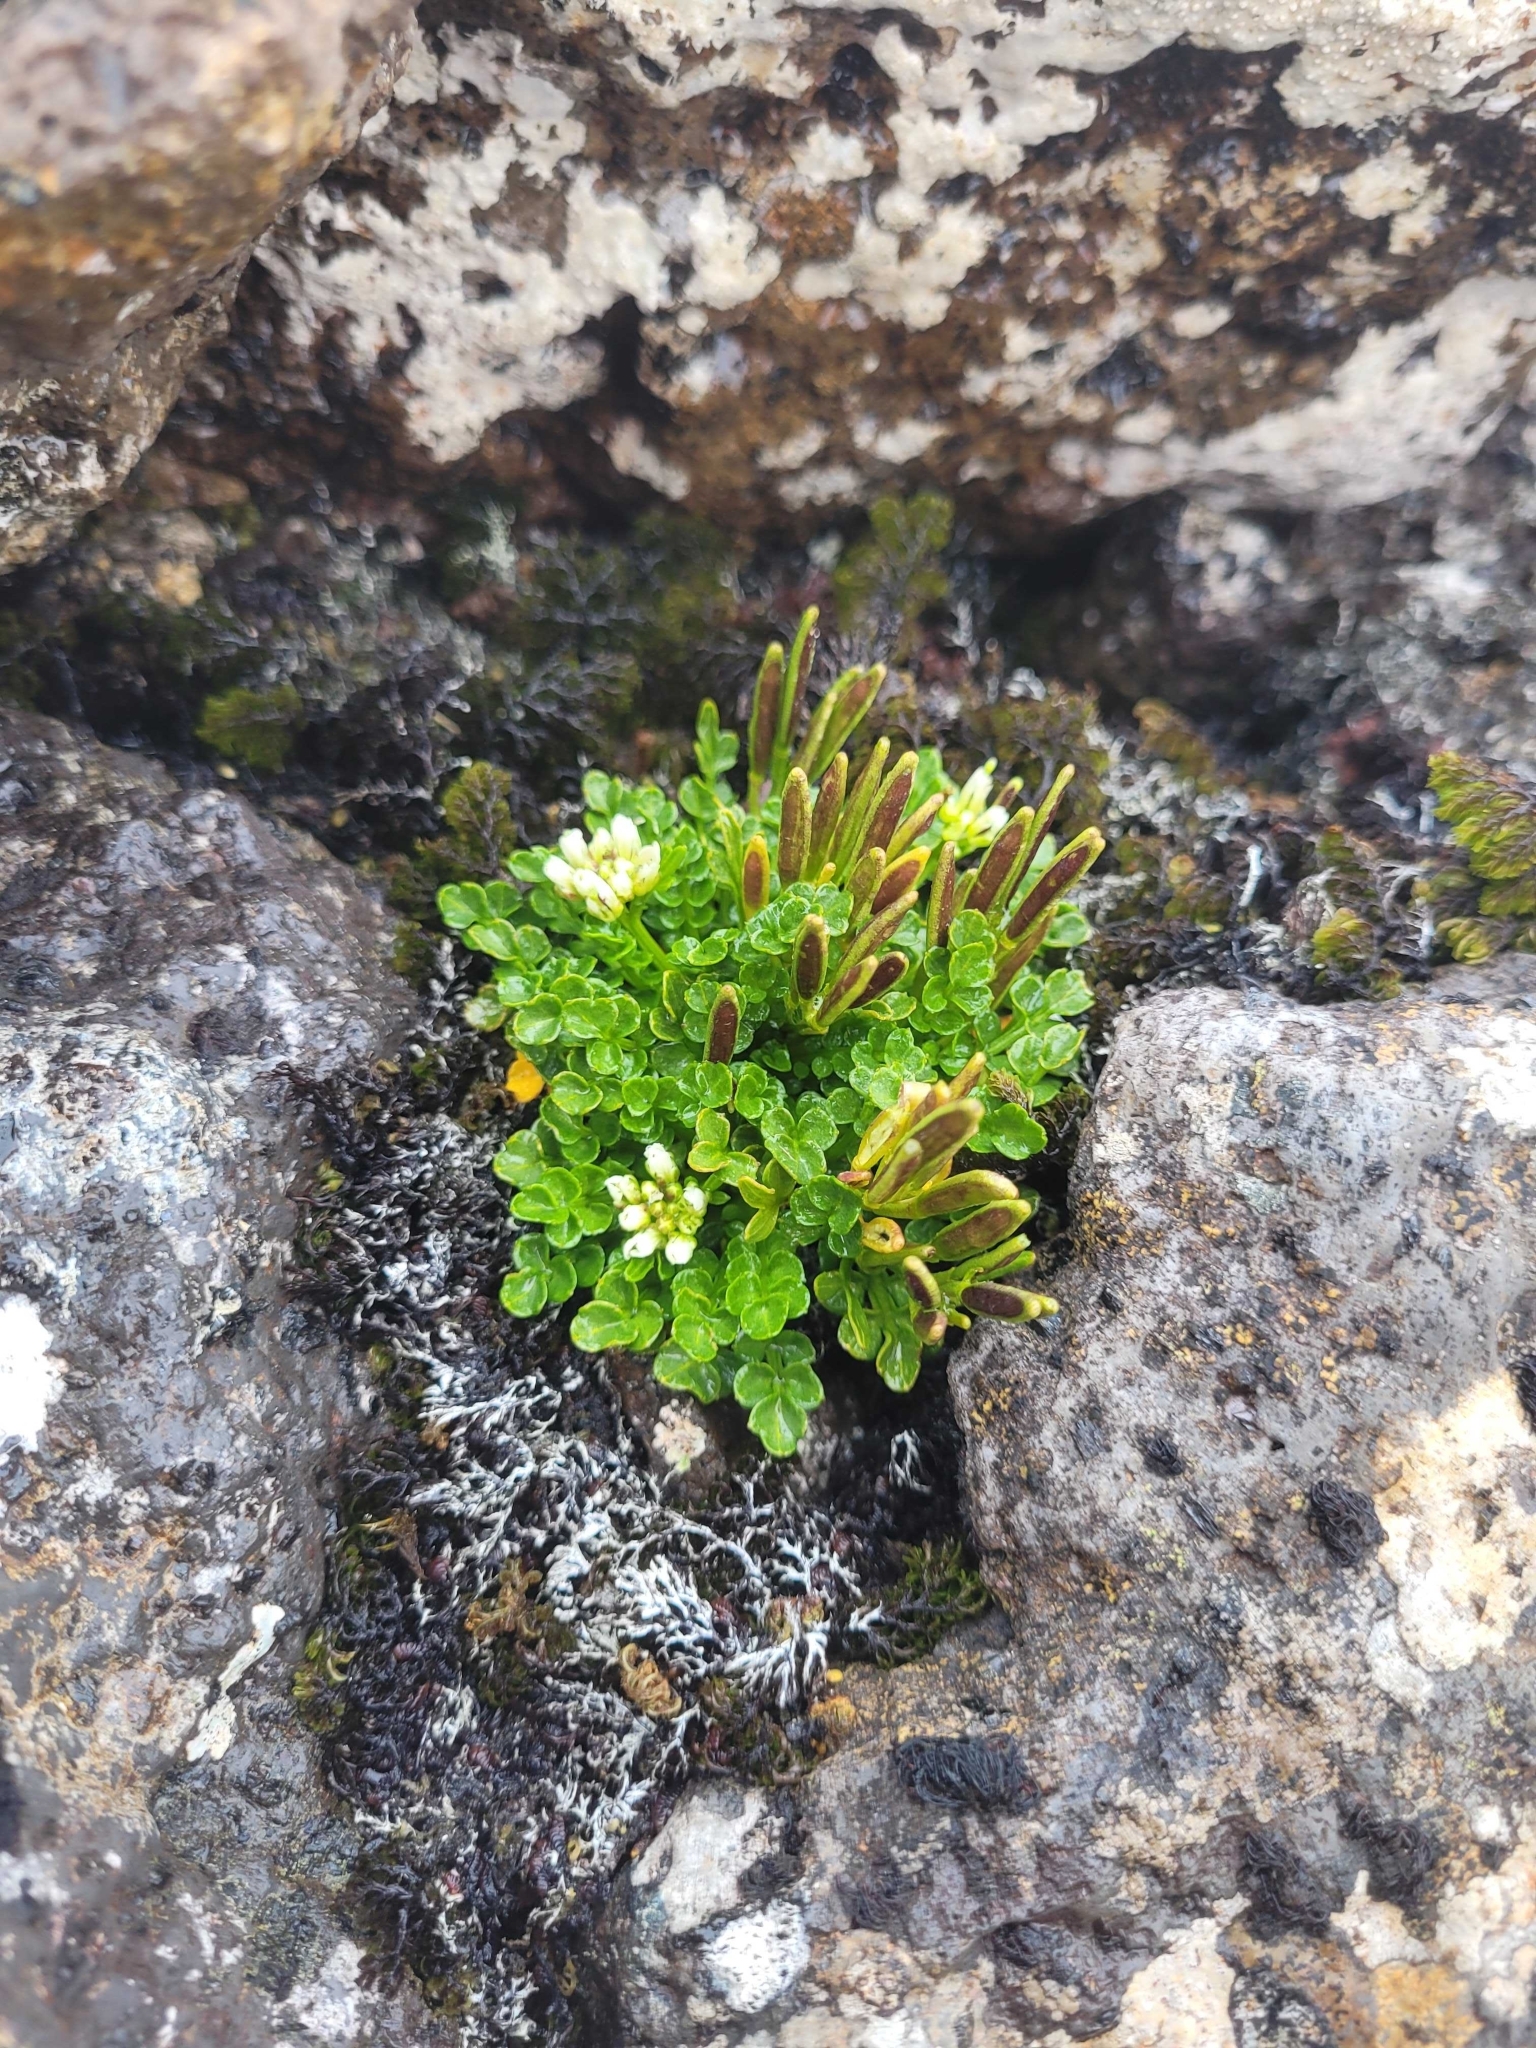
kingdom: Plantae
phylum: Tracheophyta
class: Magnoliopsida
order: Brassicales
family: Brassicaceae
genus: Cardamine
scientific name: Cardamine latior
